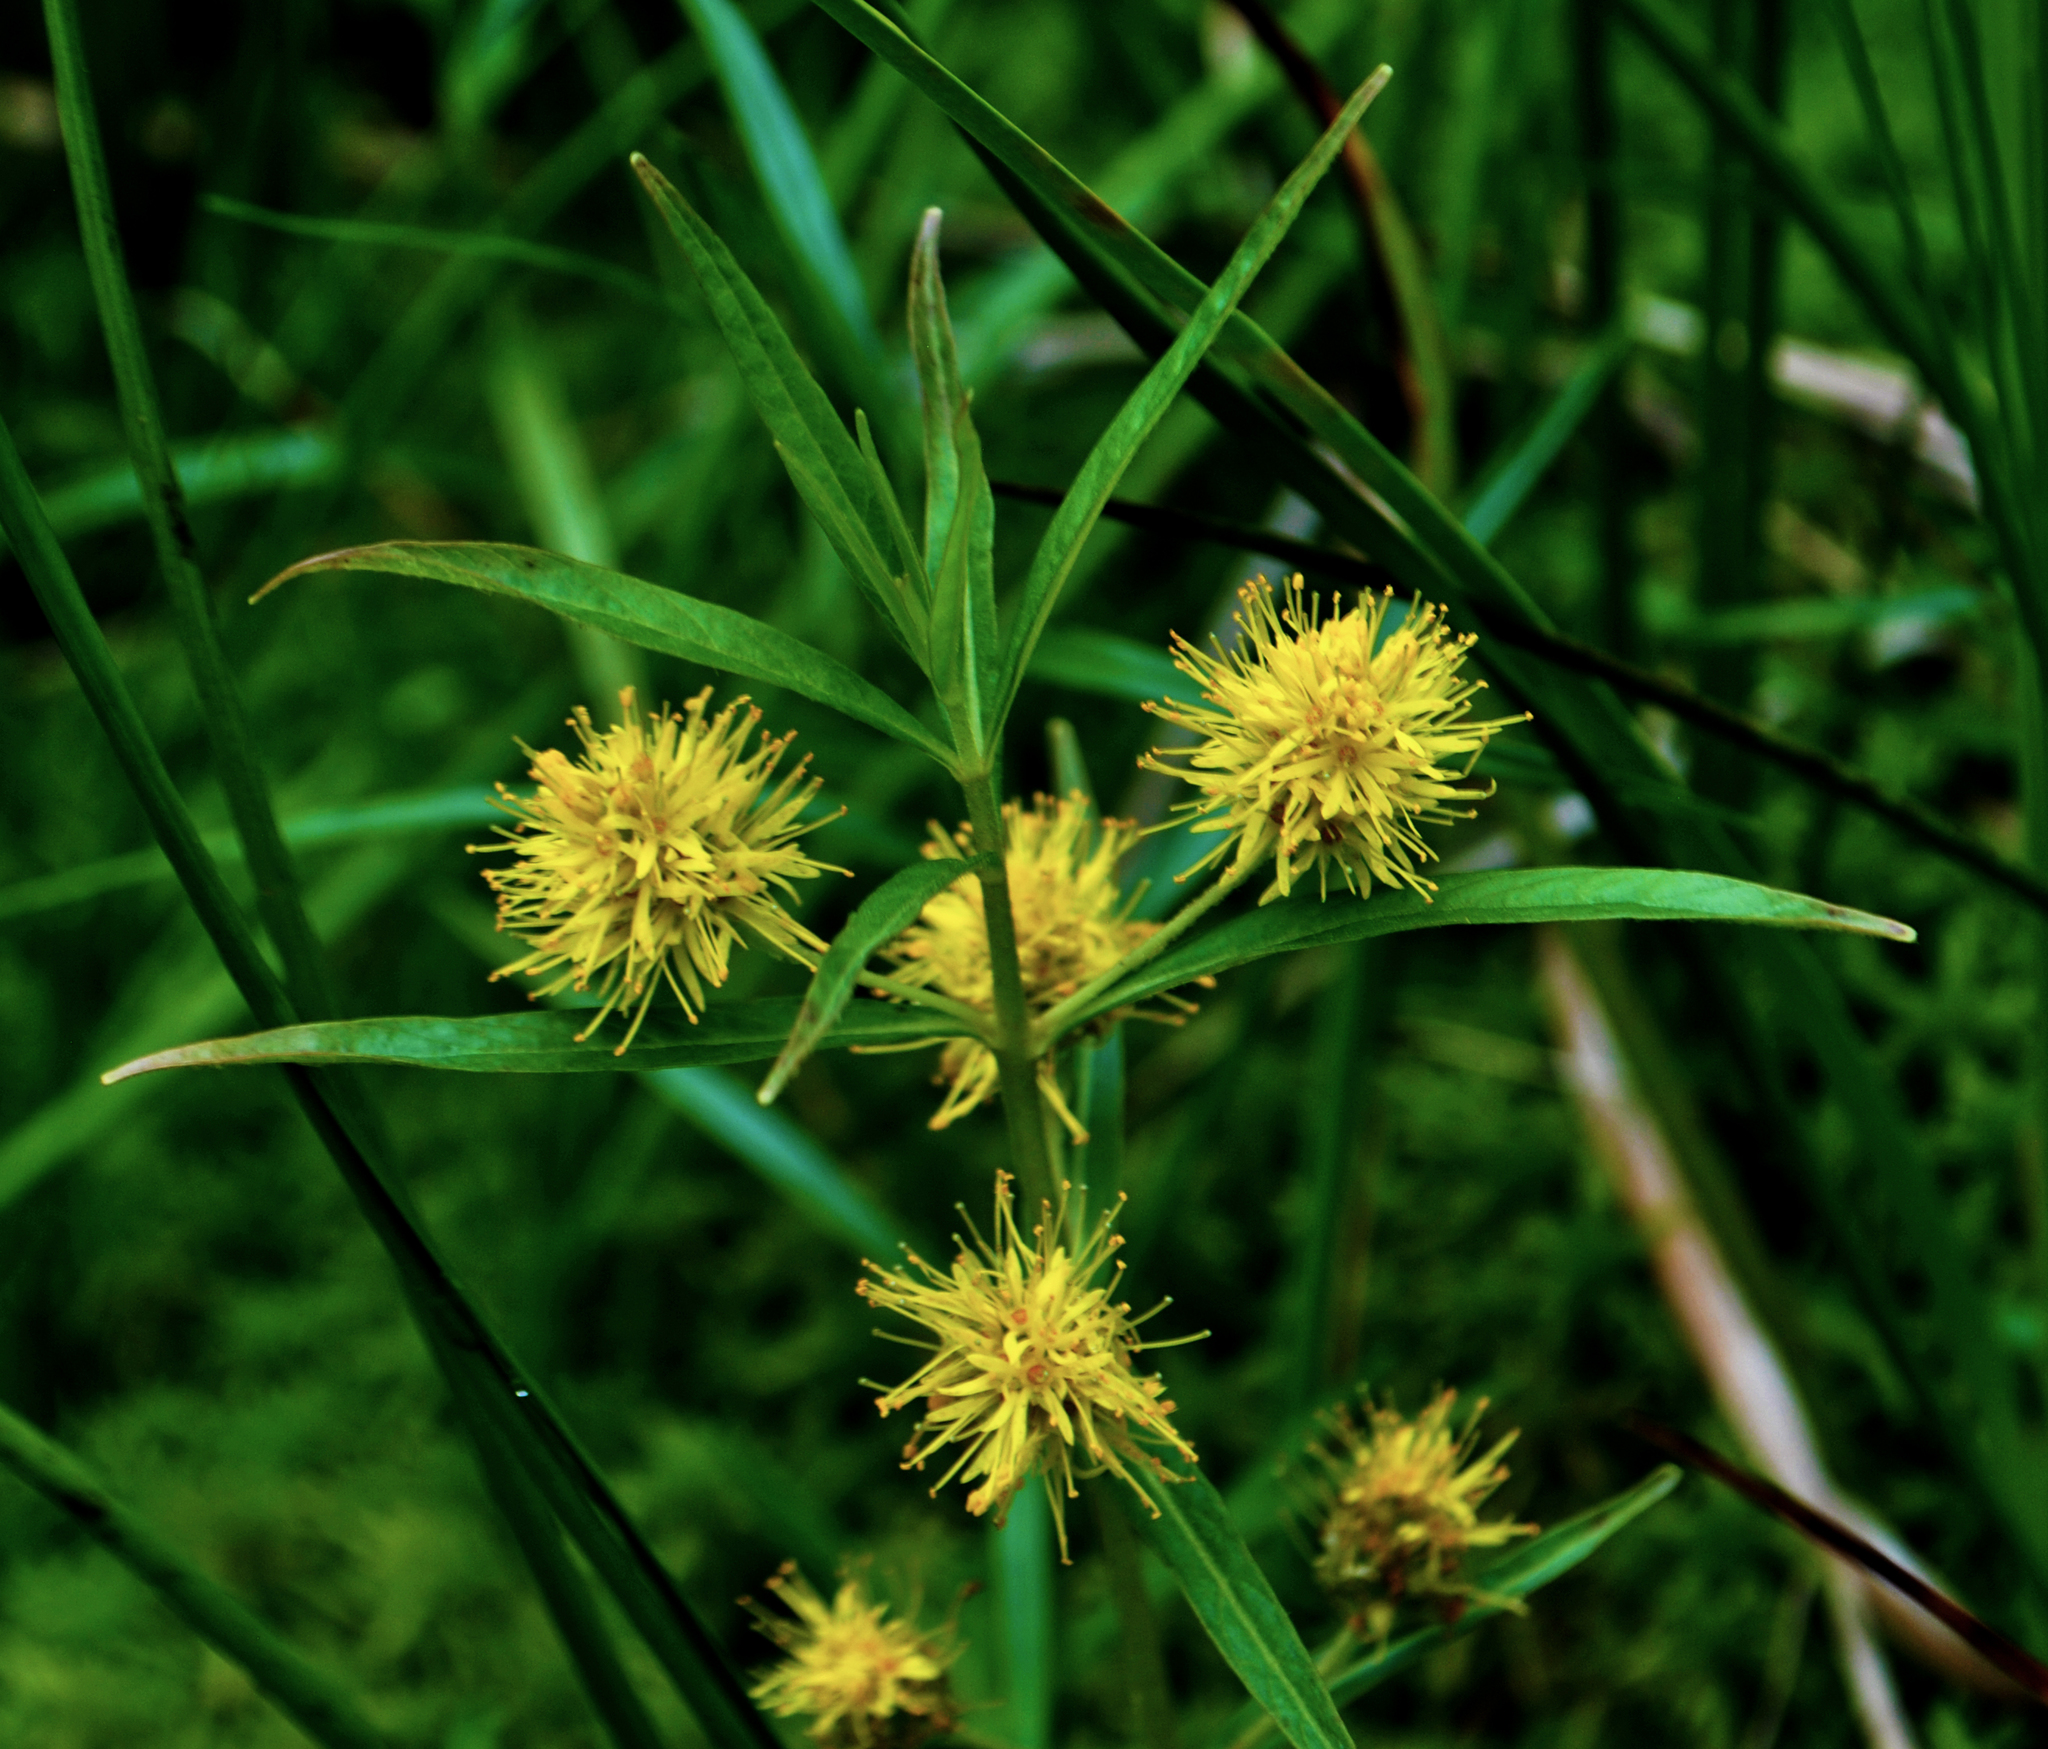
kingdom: Plantae
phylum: Tracheophyta
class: Magnoliopsida
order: Ericales
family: Primulaceae
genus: Lysimachia
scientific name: Lysimachia thyrsiflora
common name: Tufted loosestrife
